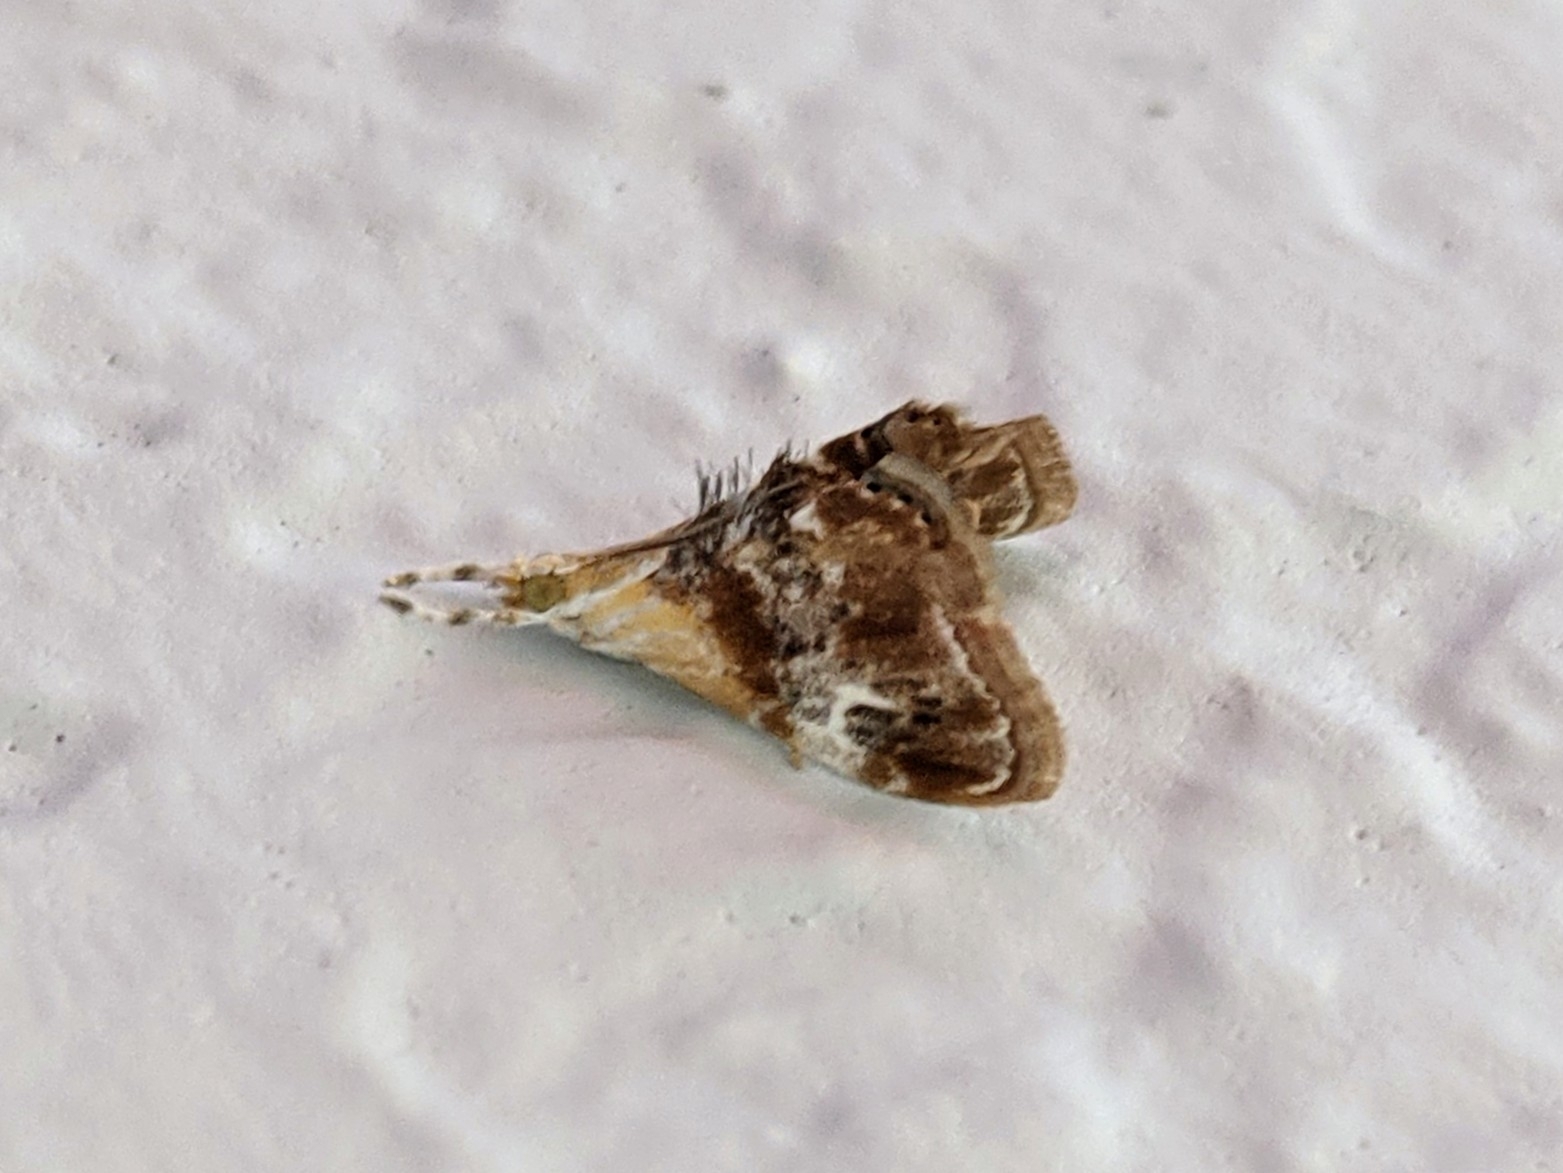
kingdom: Animalia
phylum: Arthropoda
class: Insecta
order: Lepidoptera
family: Crambidae
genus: Dicymolomia
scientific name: Dicymolomia julianalis
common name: Julia's dicymolomia moth
